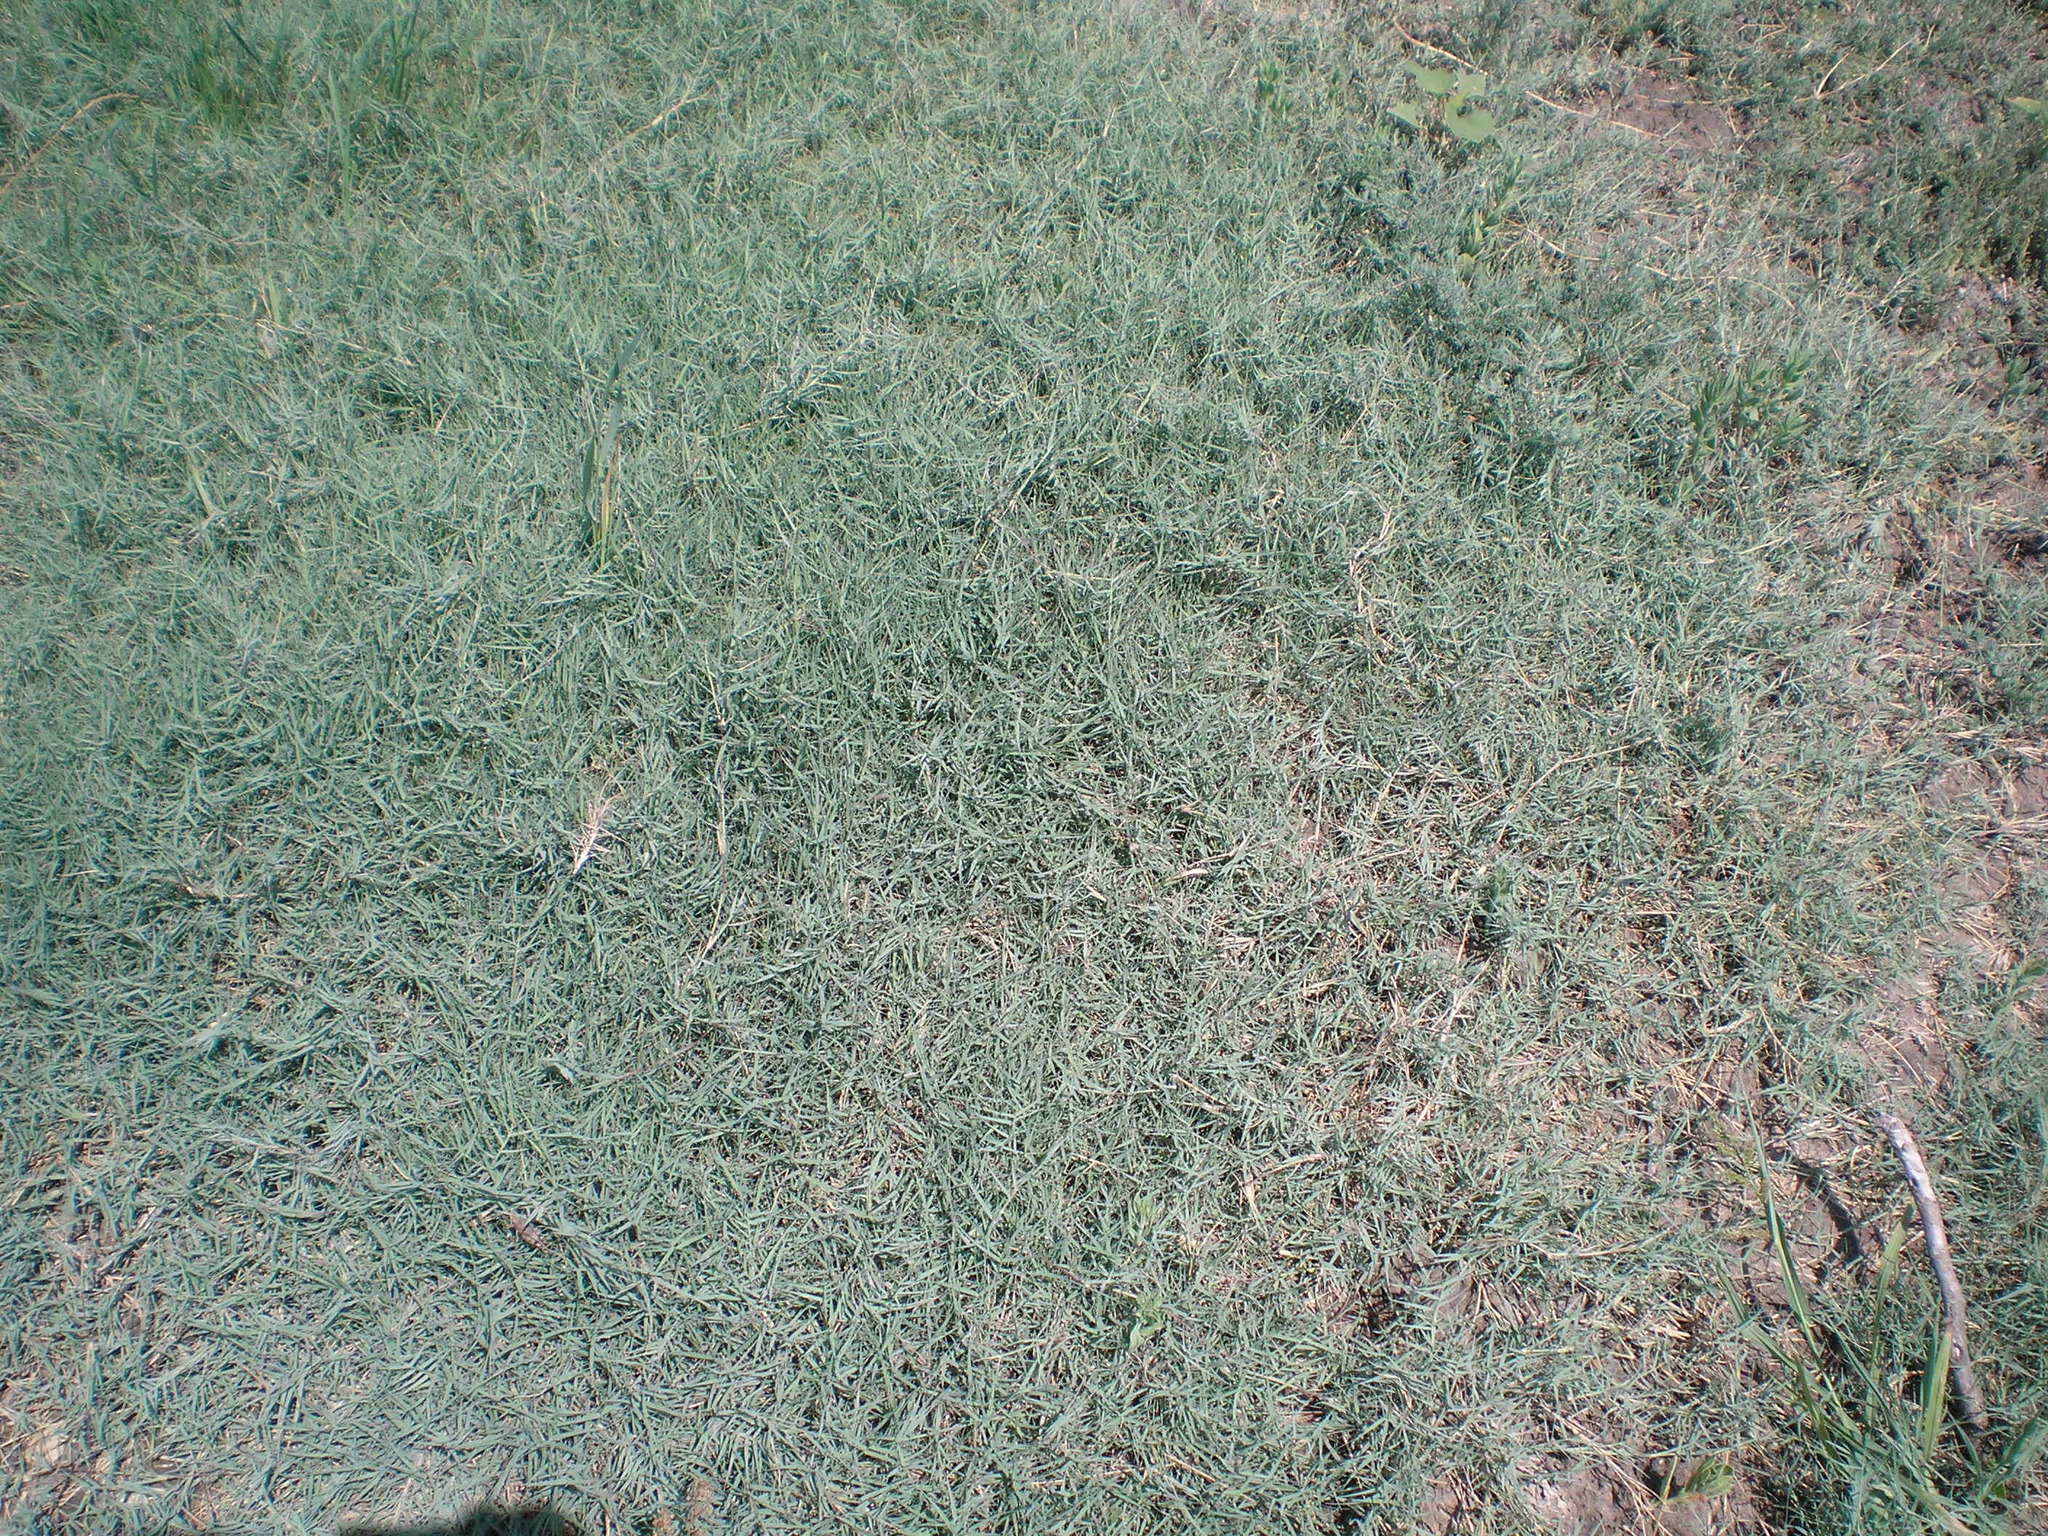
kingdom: Plantae
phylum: Tracheophyta
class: Liliopsida
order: Poales
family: Poaceae
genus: Cynodon
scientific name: Cynodon dactylon
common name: Bermuda grass
